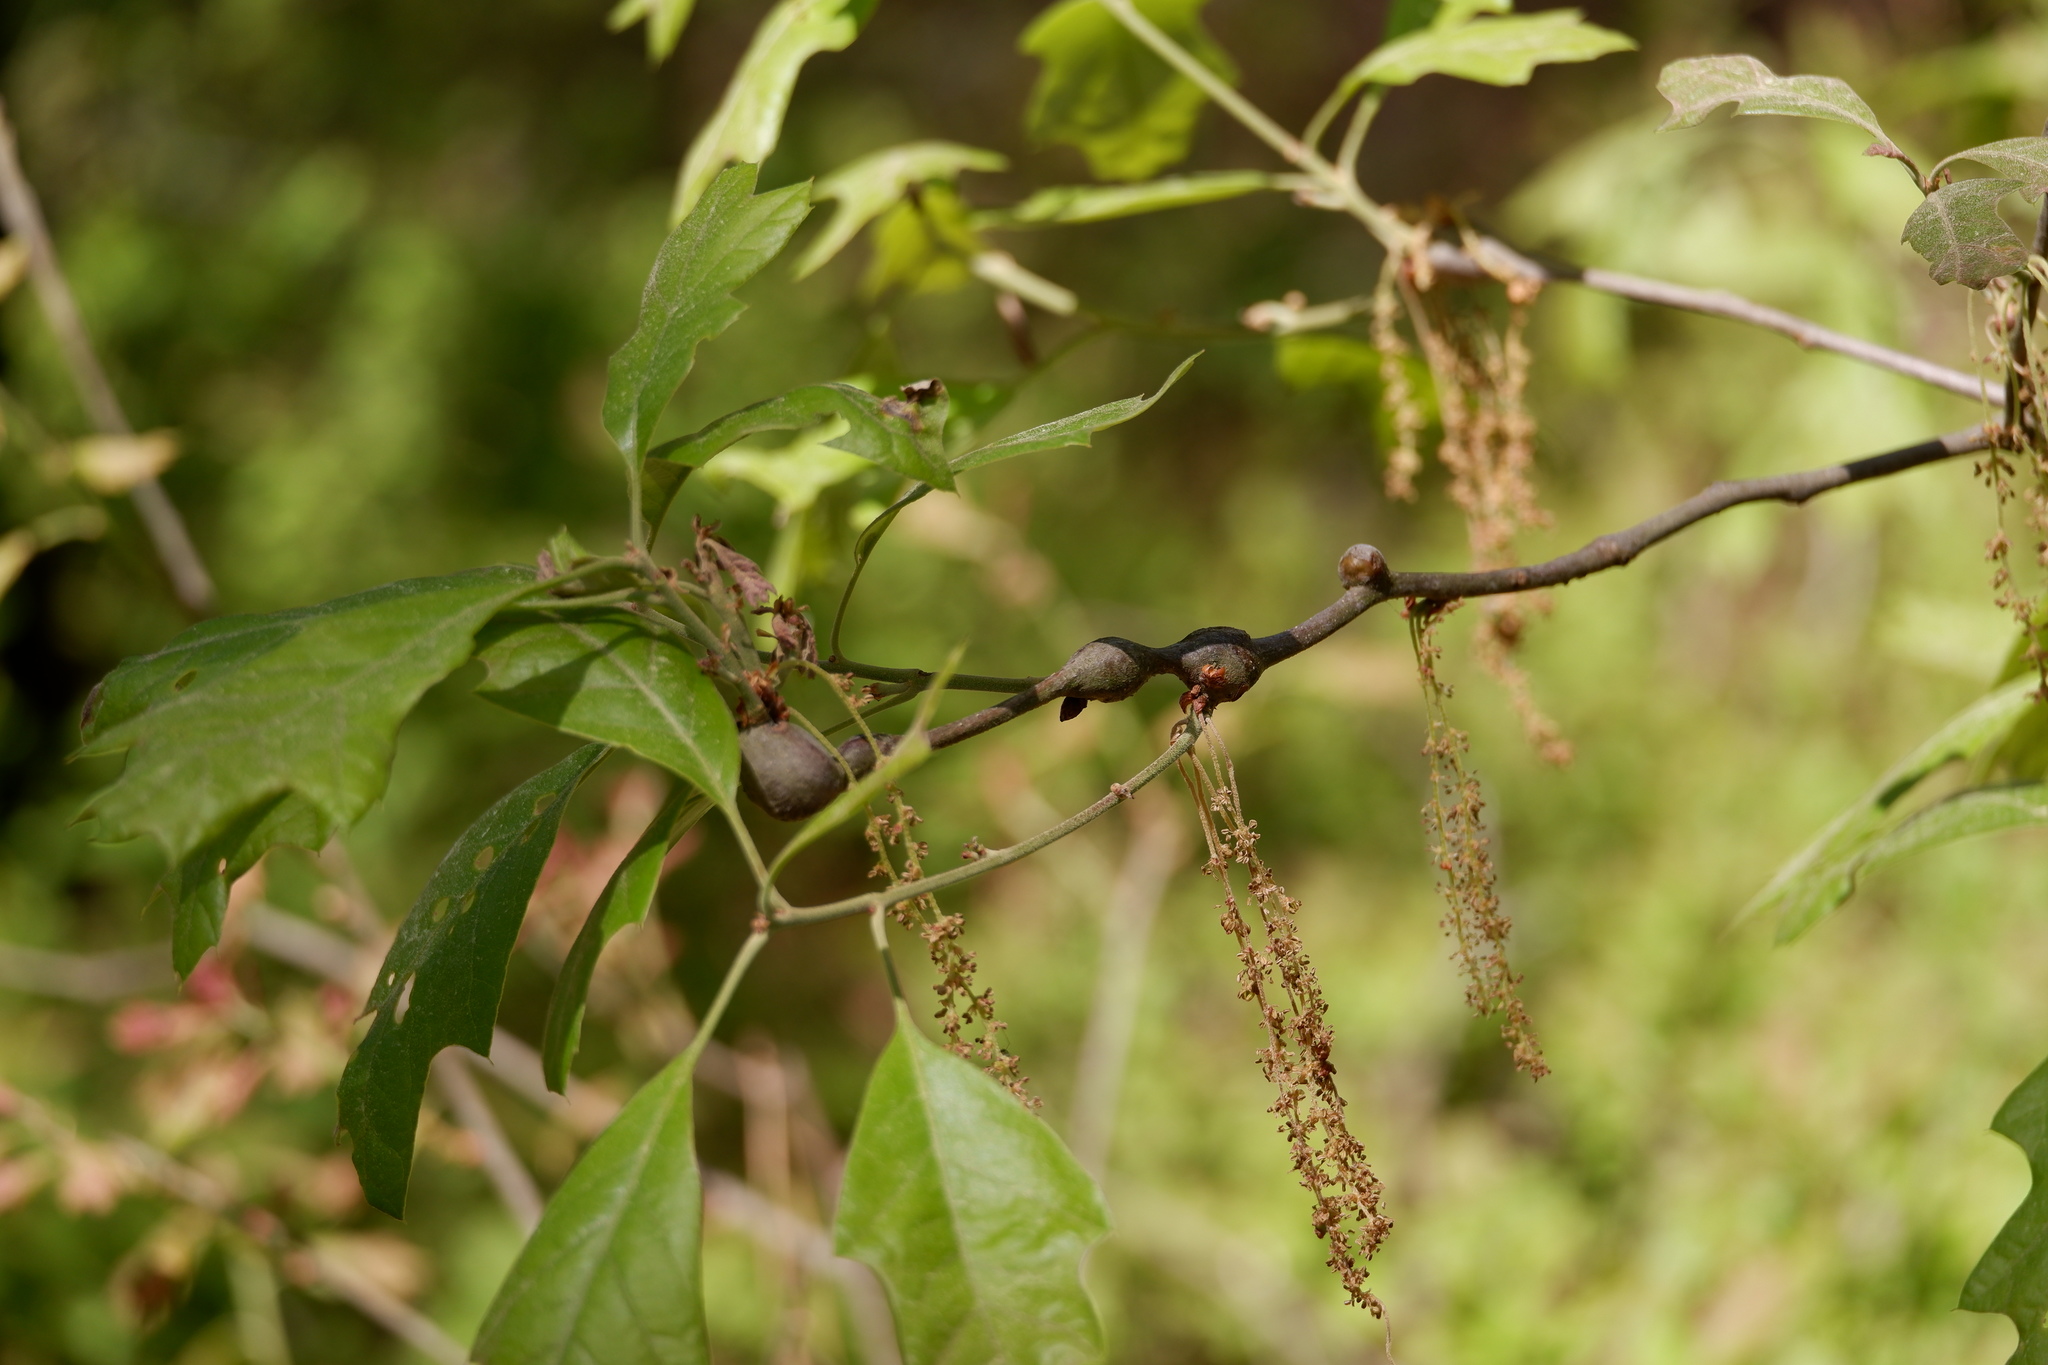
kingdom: Animalia
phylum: Arthropoda
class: Insecta
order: Hymenoptera
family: Cynipidae
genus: Zapatella
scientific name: Zapatella quercusphellos
